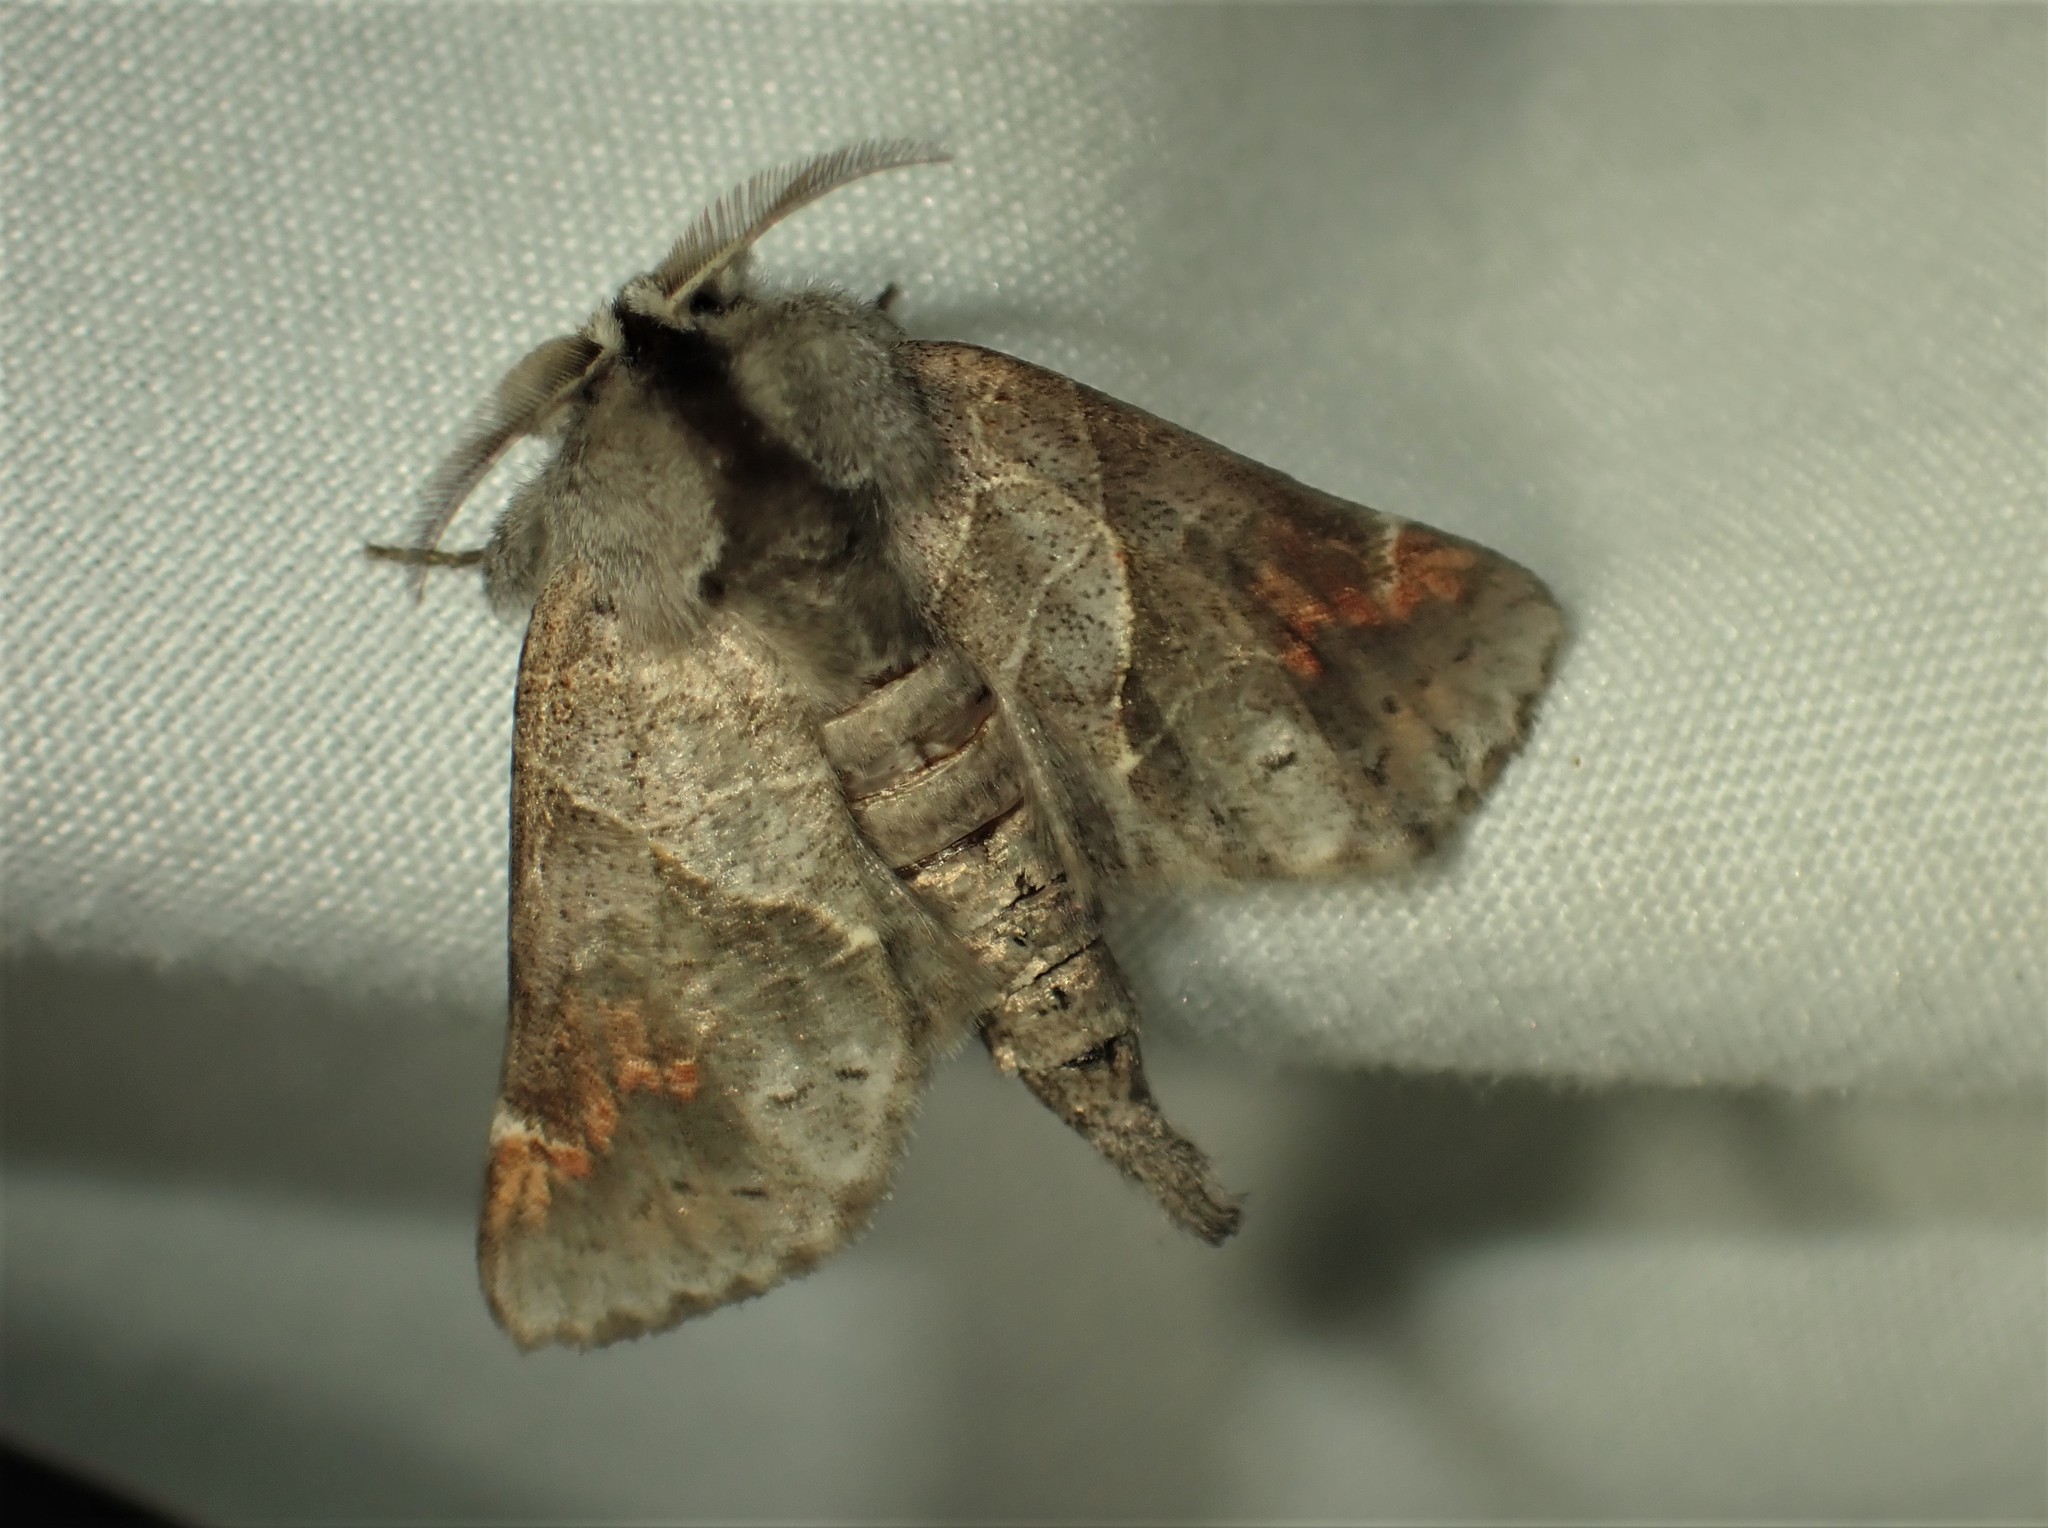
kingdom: Animalia
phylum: Arthropoda
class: Insecta
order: Lepidoptera
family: Notodontidae
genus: Clostera
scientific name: Clostera apicalis
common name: Apical prominent
